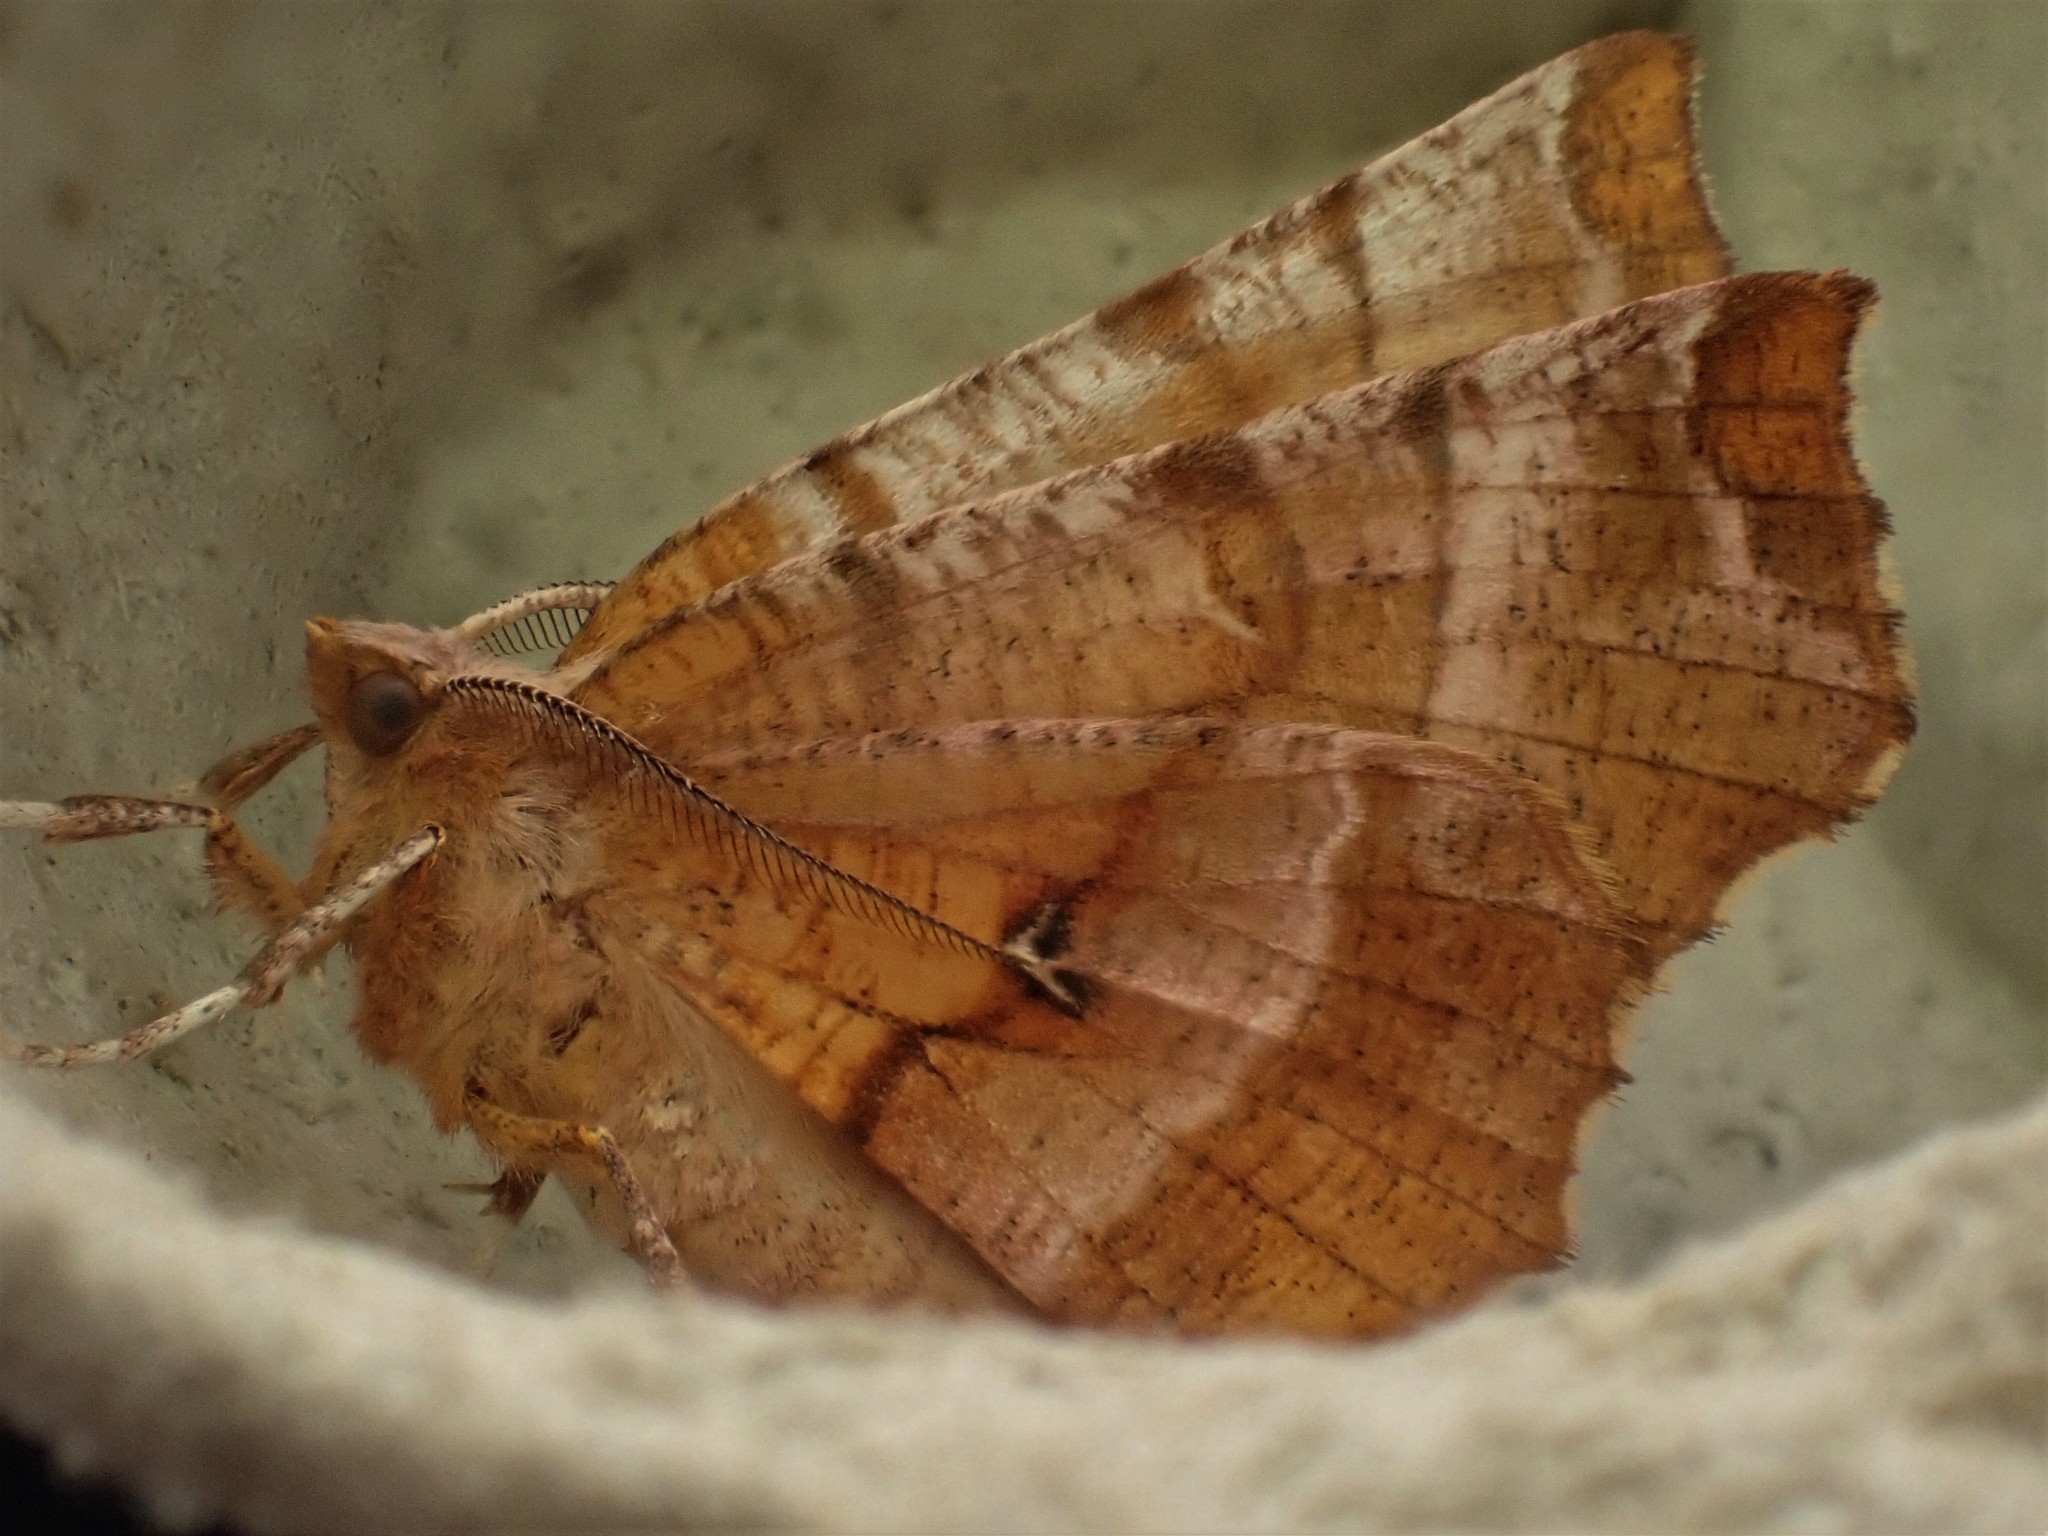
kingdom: Animalia
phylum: Arthropoda
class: Insecta
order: Lepidoptera
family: Geometridae
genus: Selenia
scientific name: Selenia dentaria
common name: Early thorn
